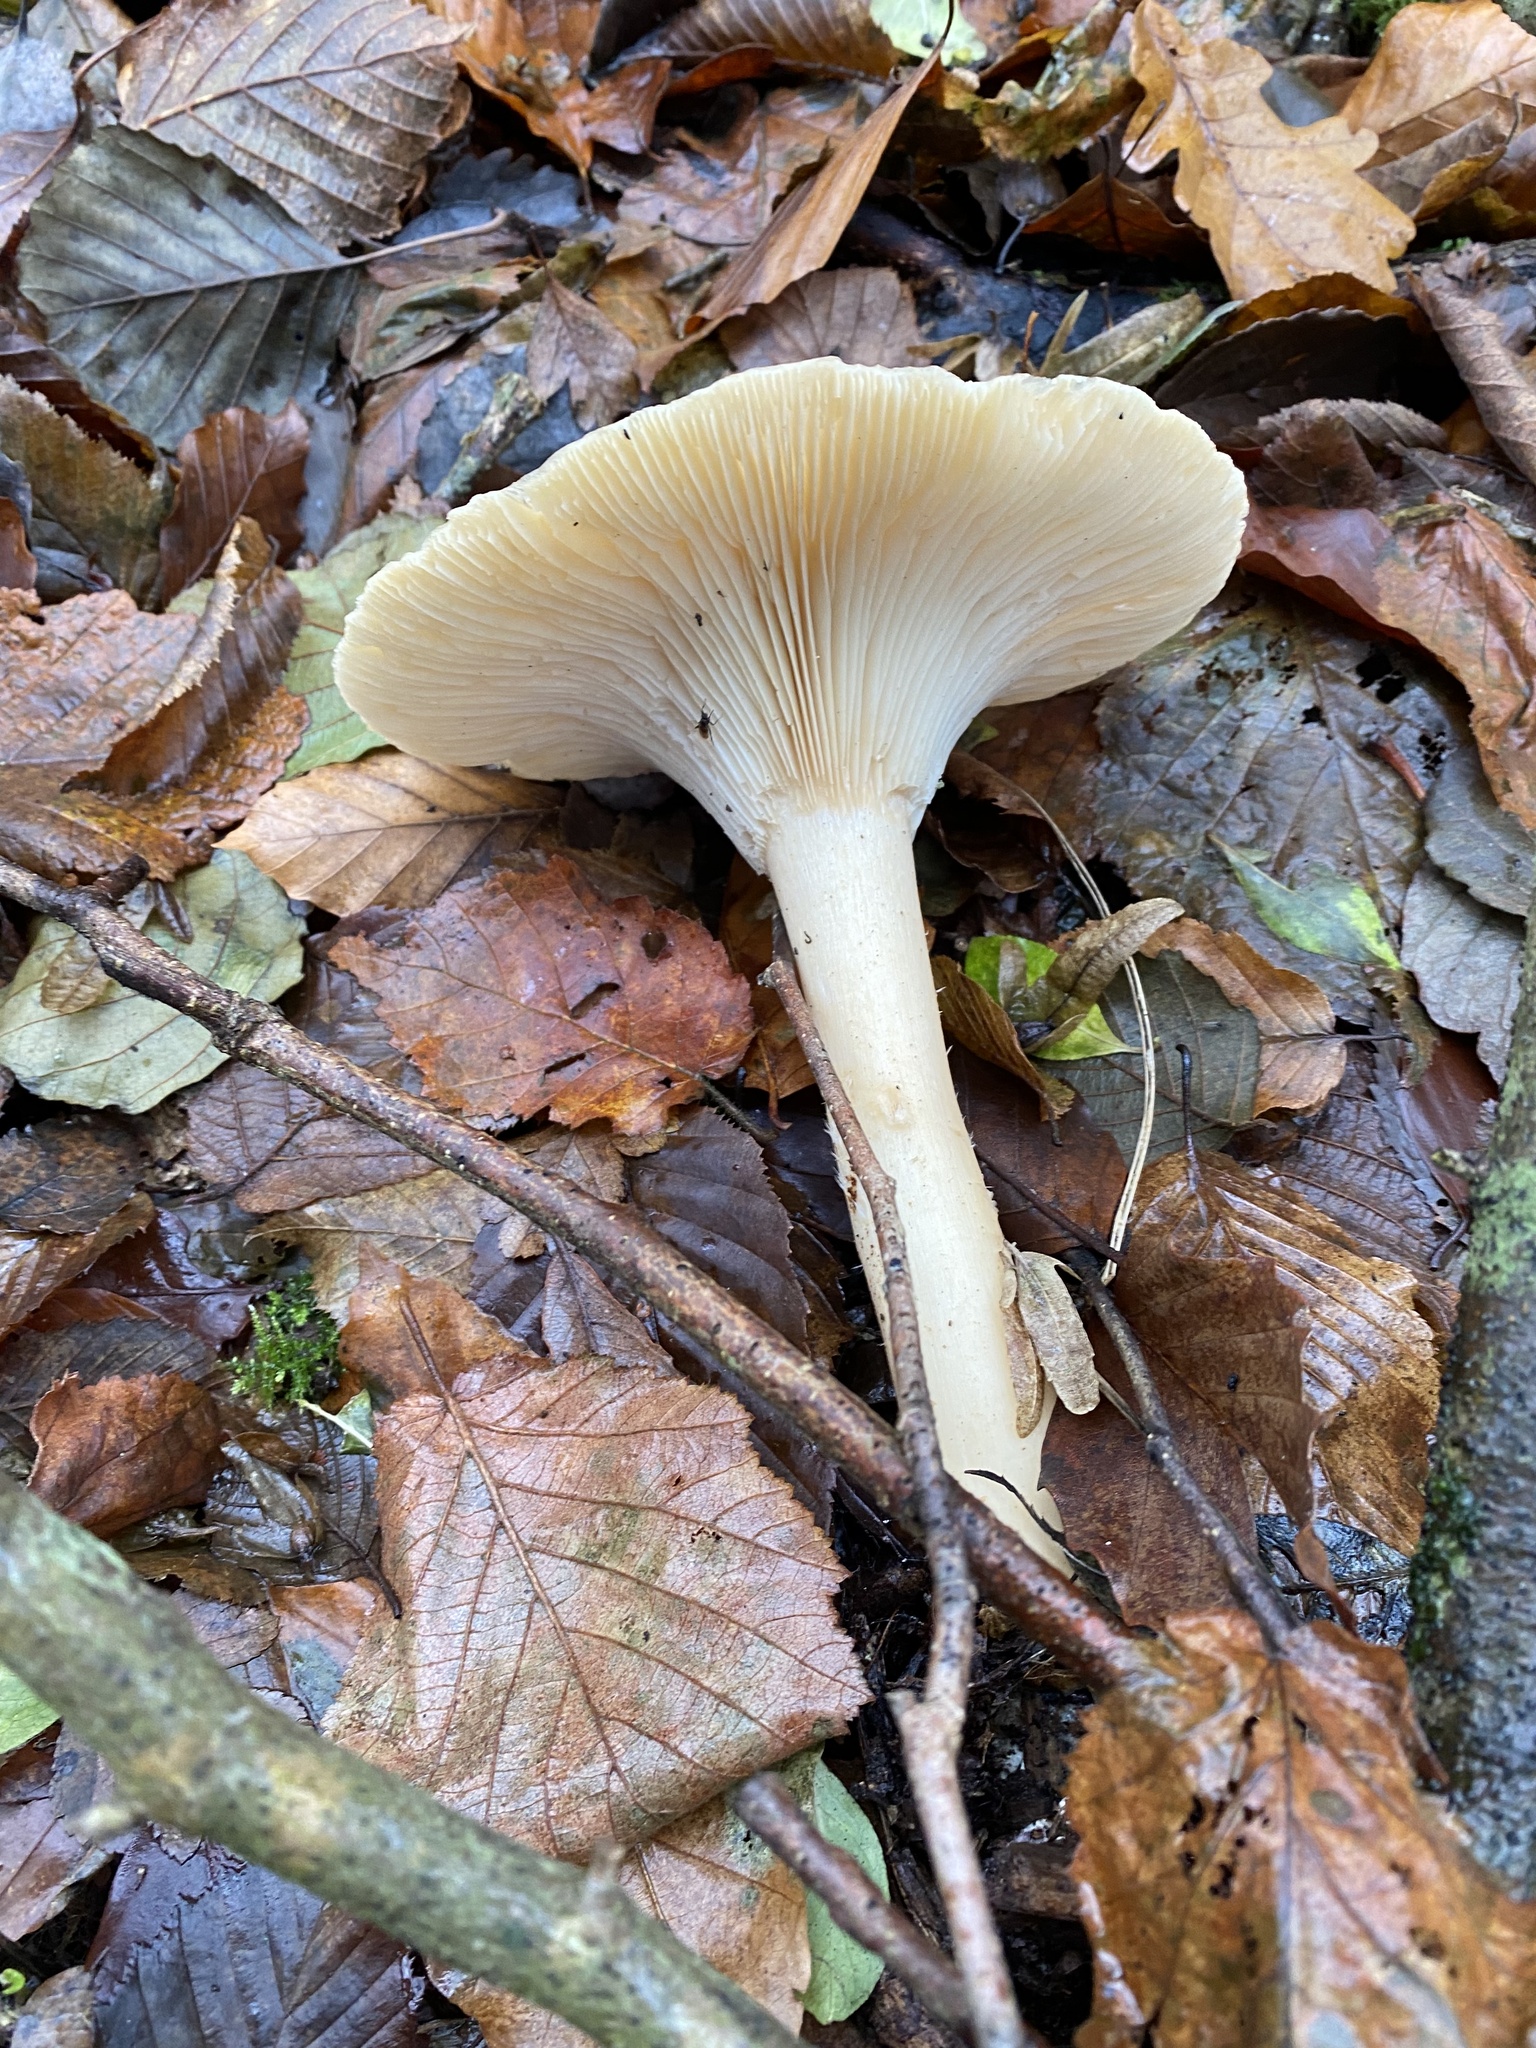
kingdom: Fungi
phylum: Basidiomycota
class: Agaricomycetes
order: Agaricales
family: Tricholomataceae
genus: Infundibulicybe
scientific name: Infundibulicybe geotropa
